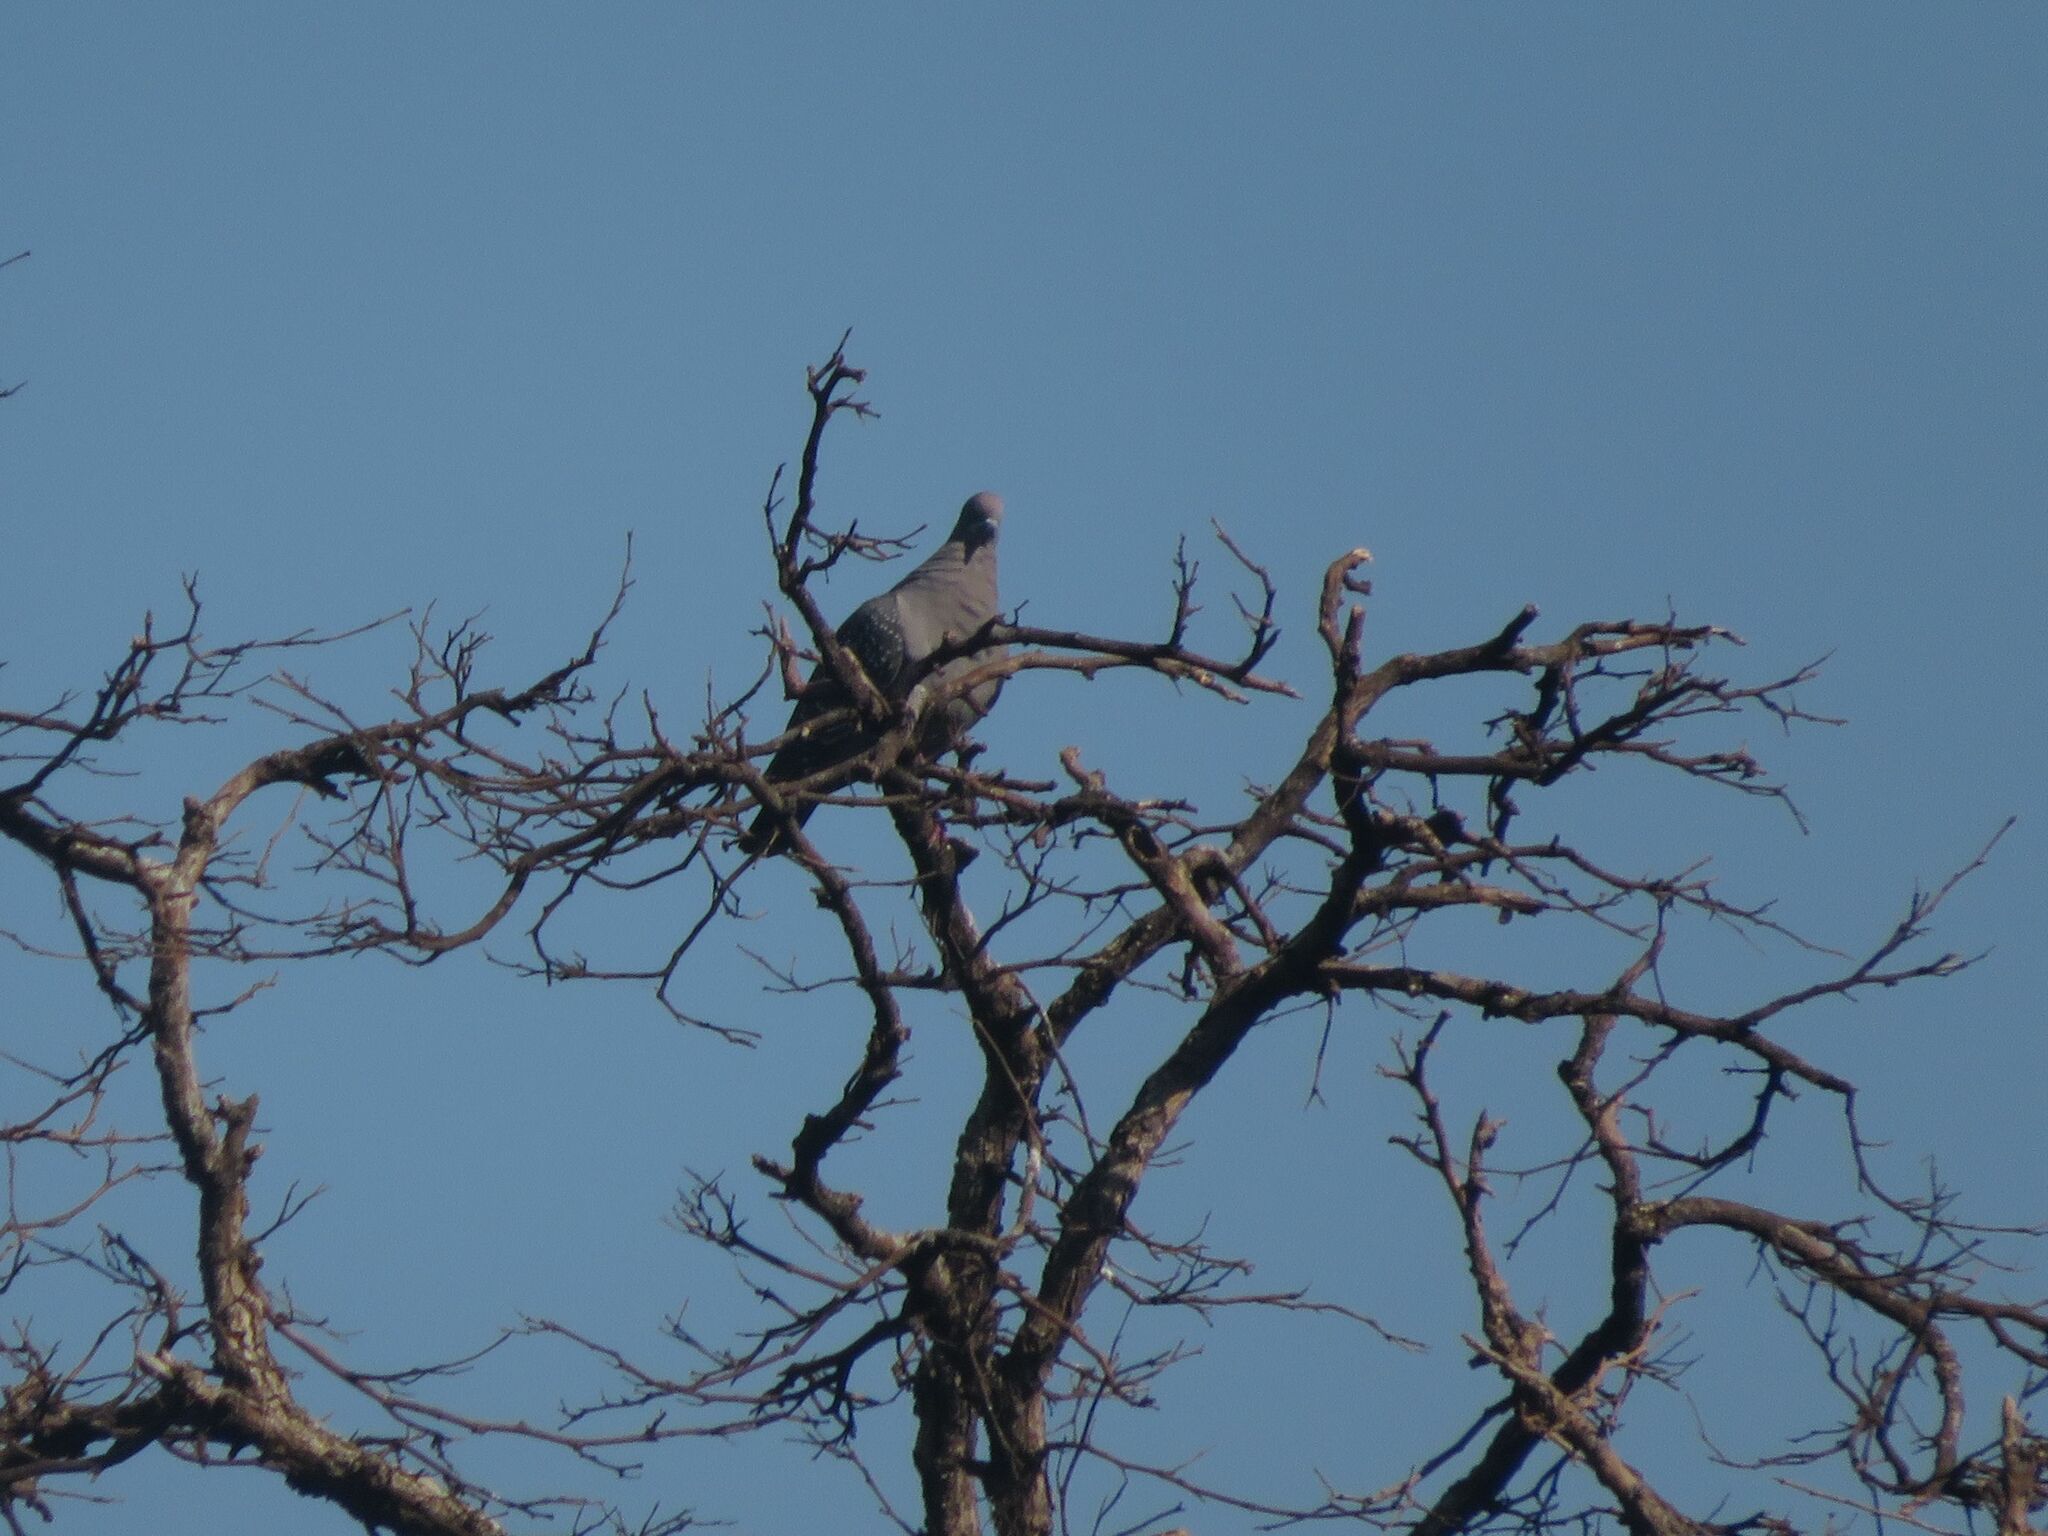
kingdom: Animalia
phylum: Chordata
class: Aves
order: Columbiformes
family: Columbidae
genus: Patagioenas
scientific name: Patagioenas maculosa
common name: Spot-winged pigeon
